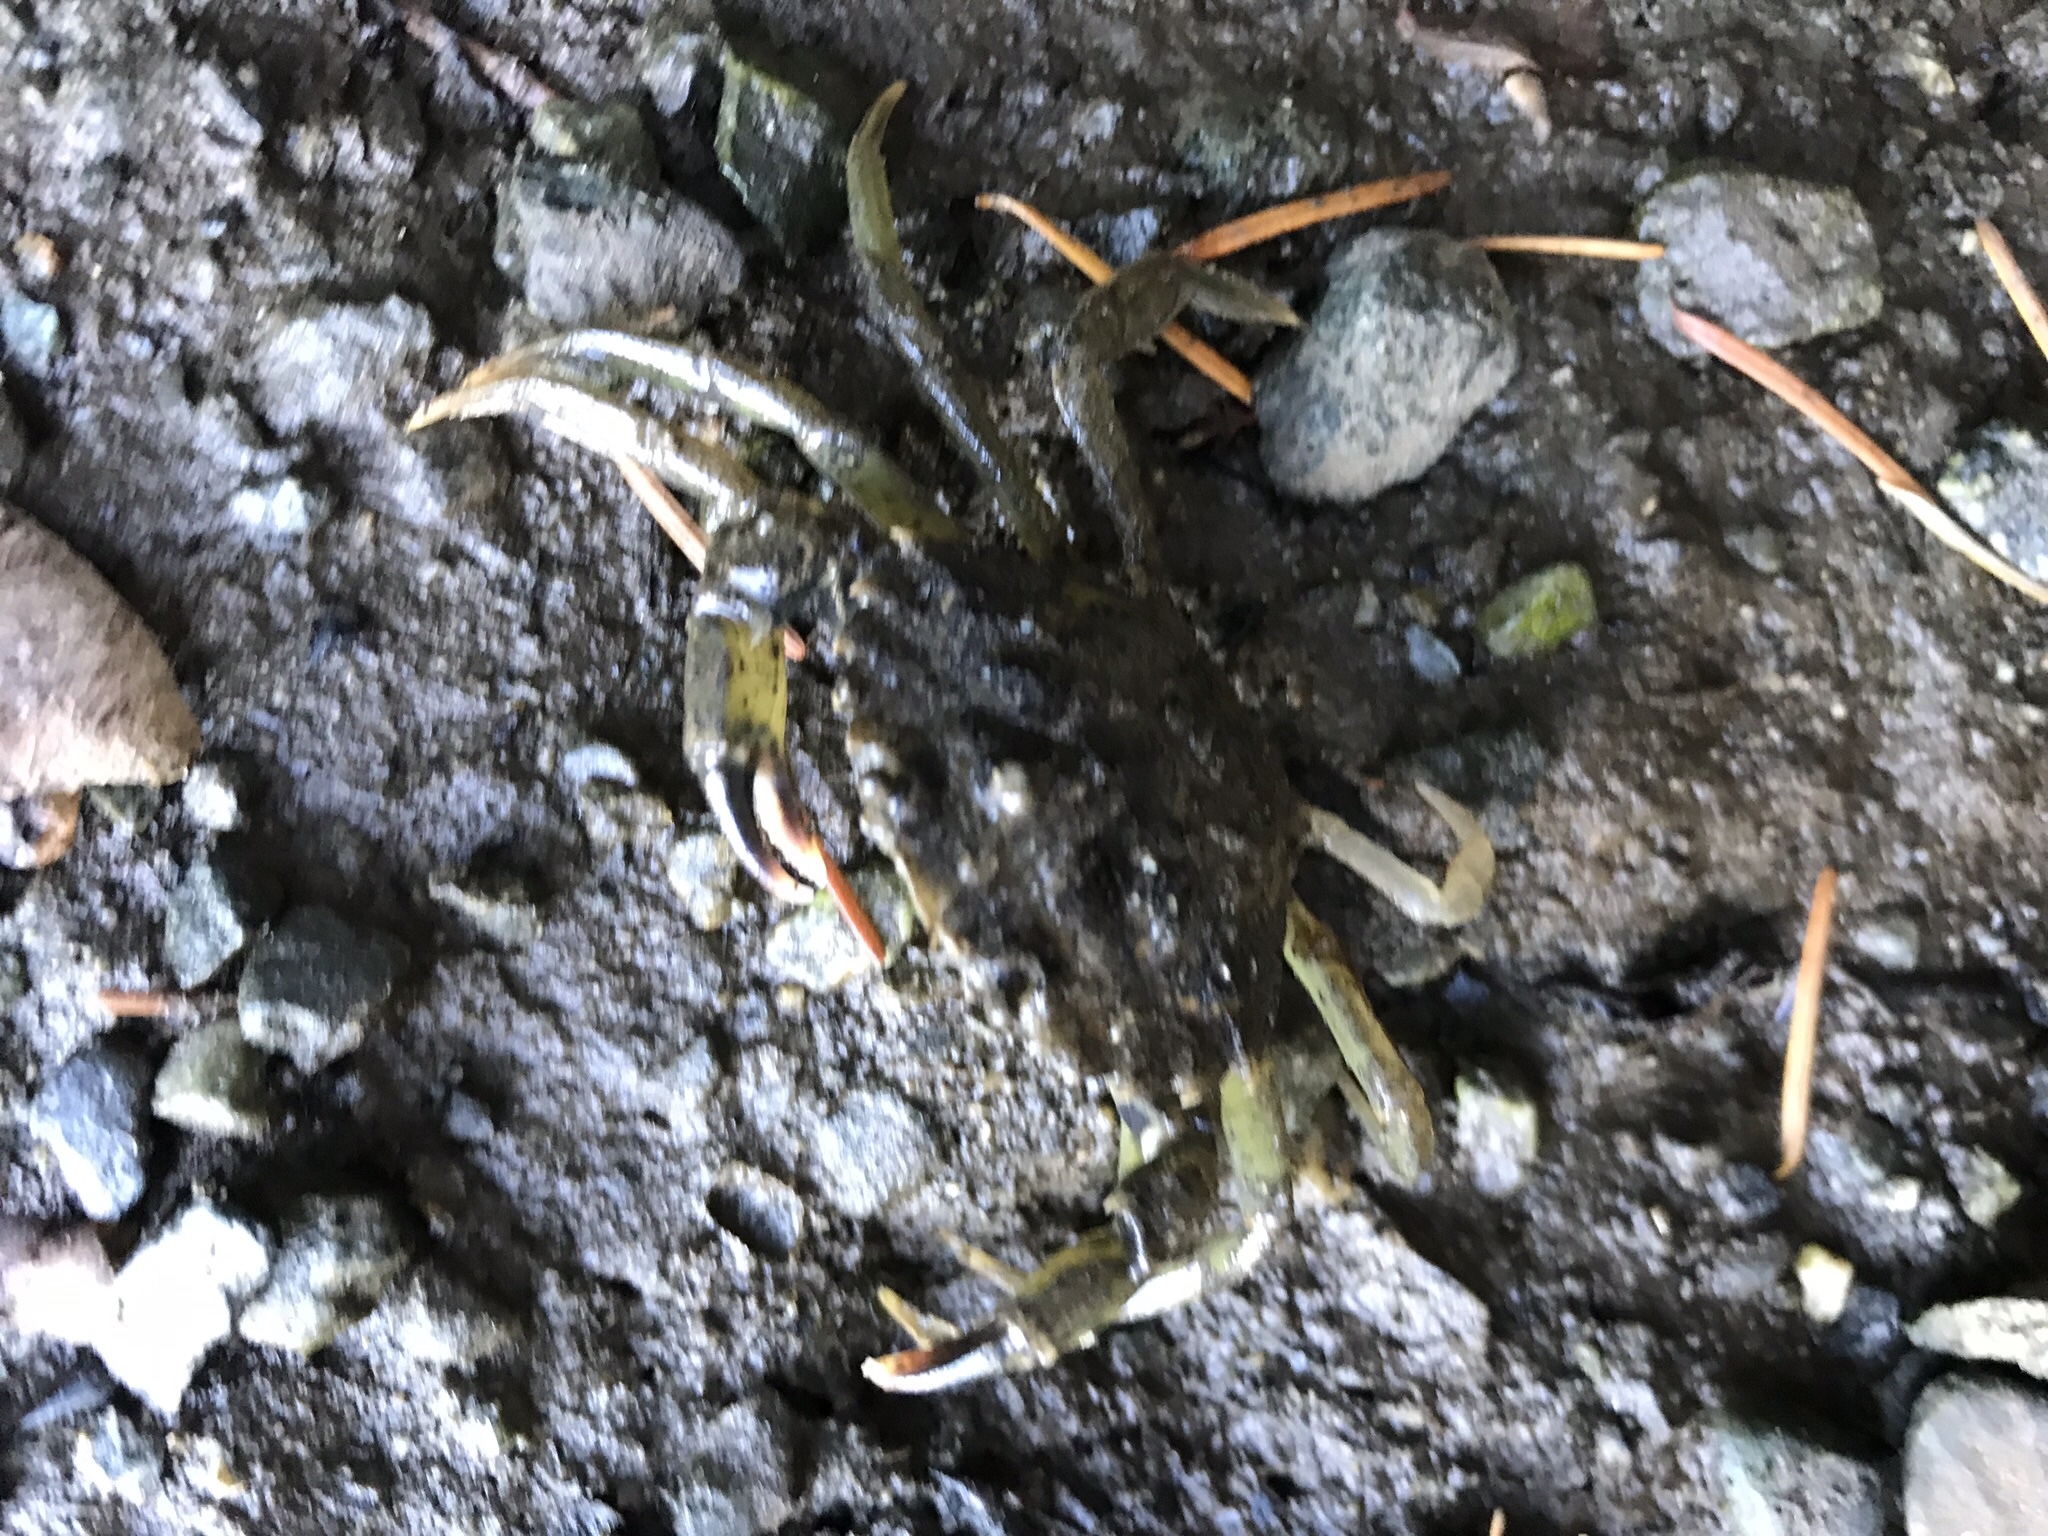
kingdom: Animalia
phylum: Arthropoda
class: Malacostraca
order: Decapoda
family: Carcinidae
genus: Carcinus
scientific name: Carcinus maenas
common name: European green crab
